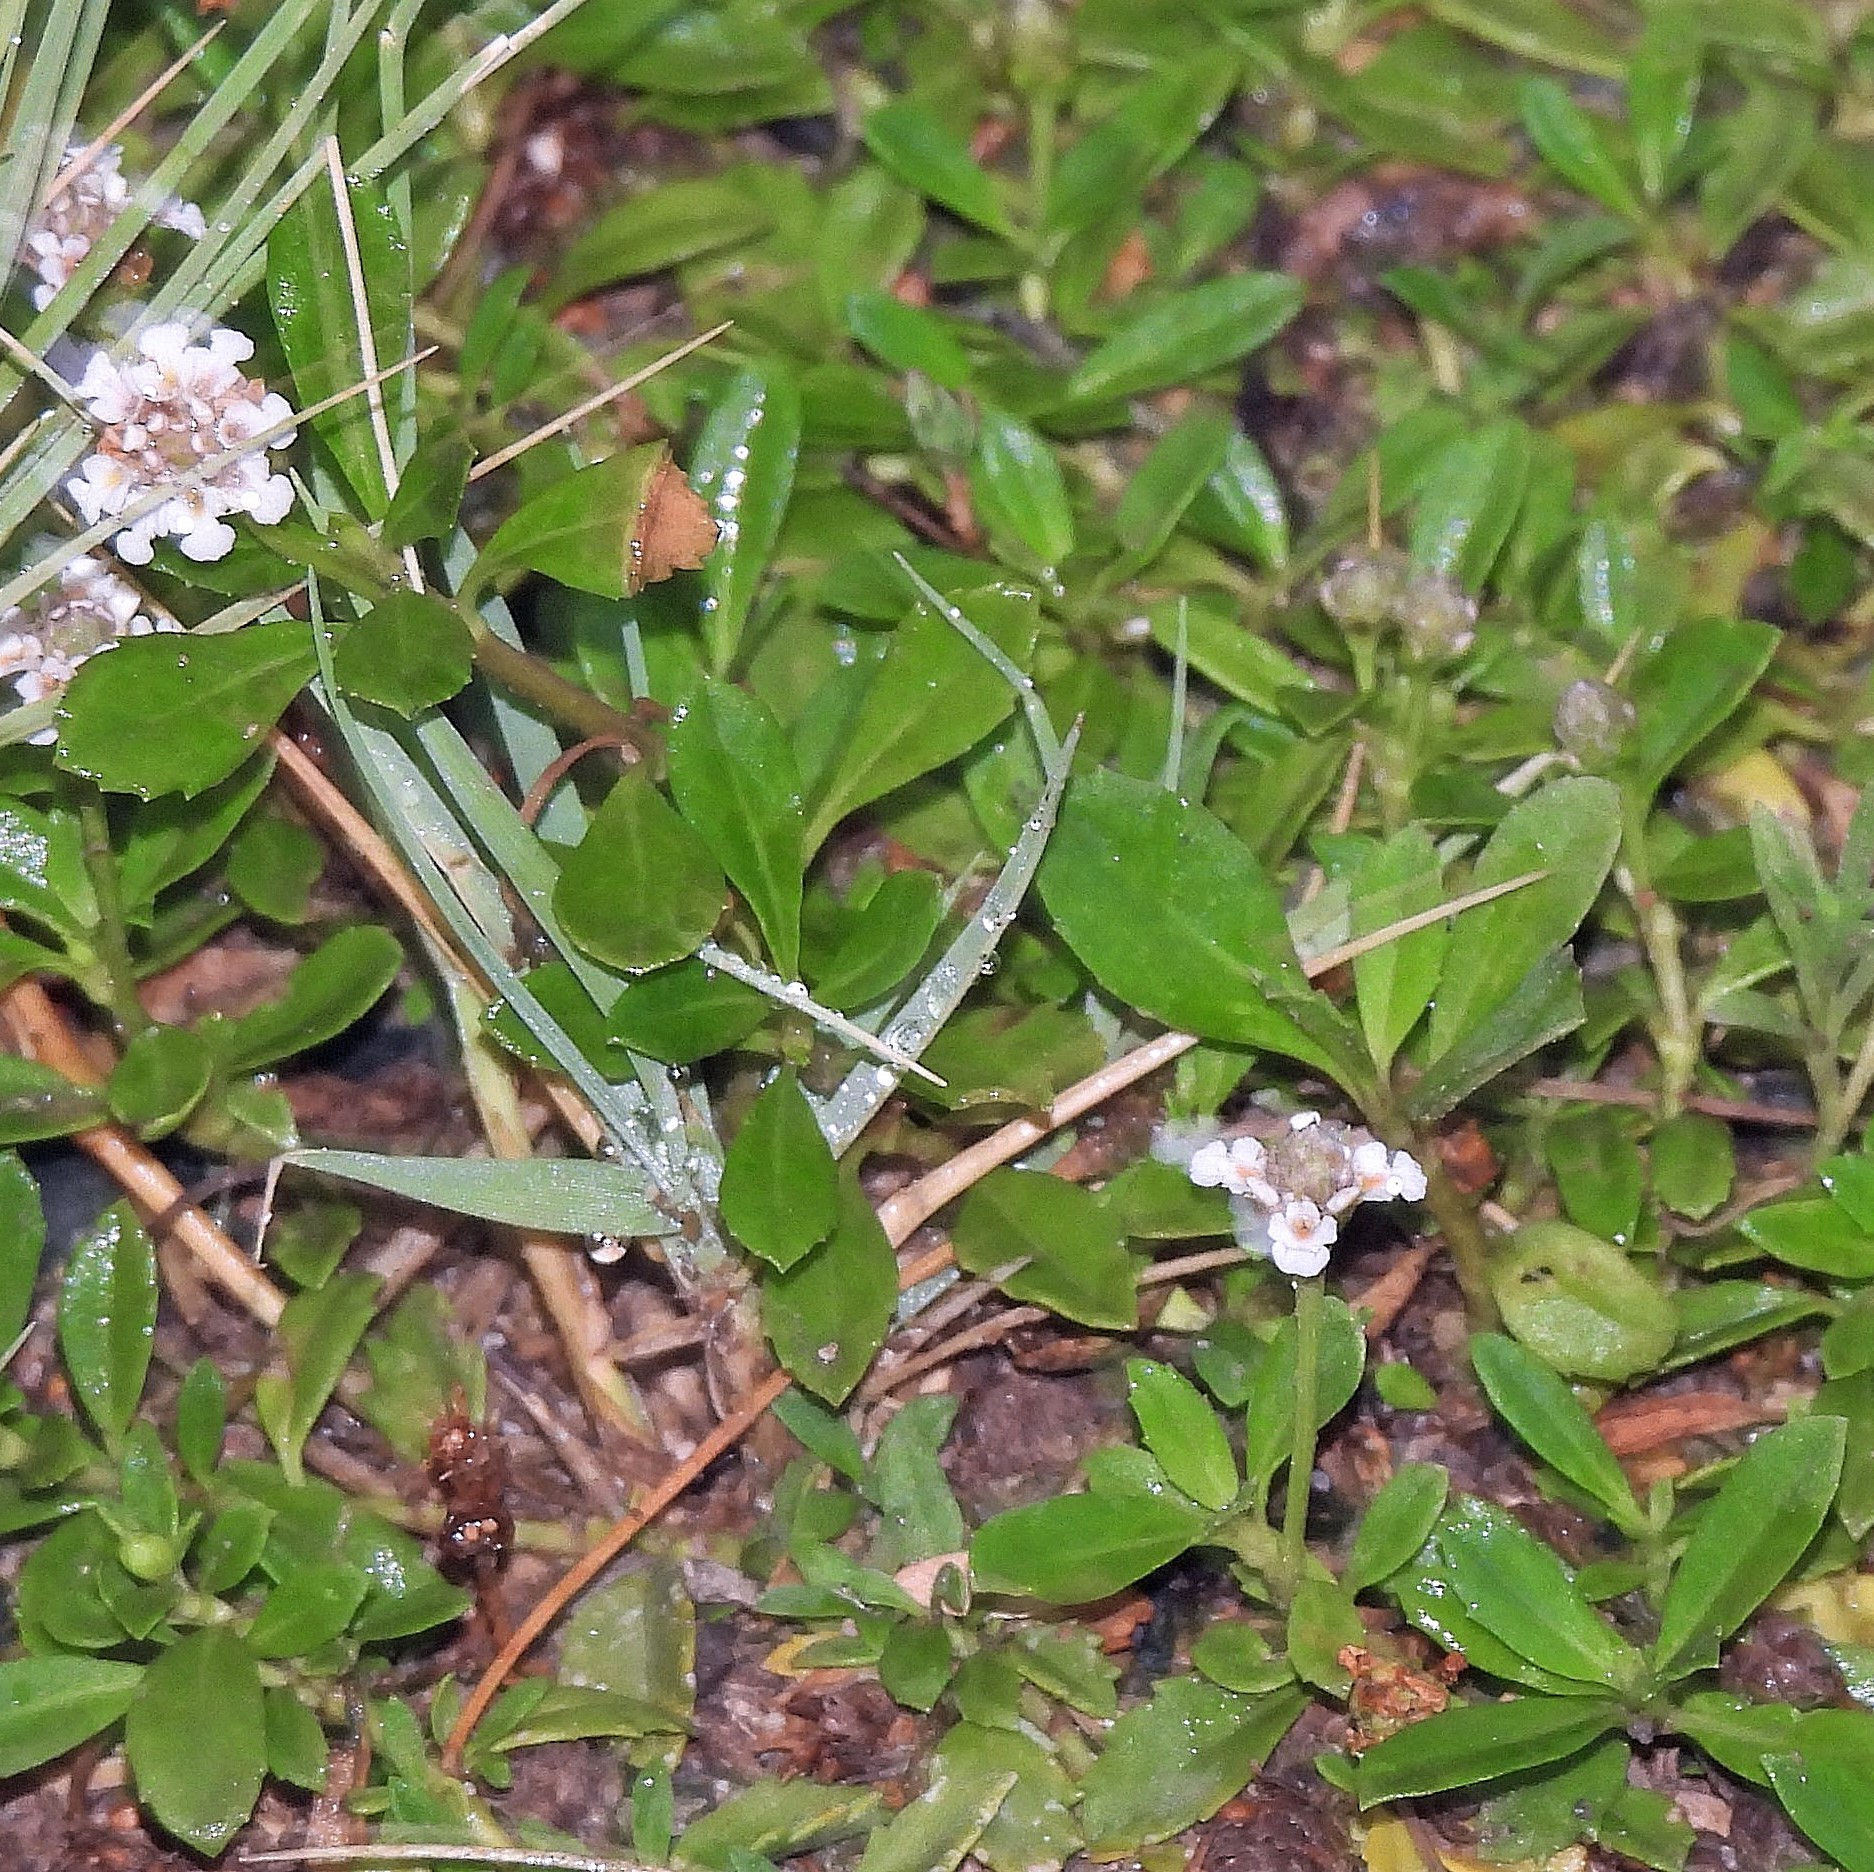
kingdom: Plantae
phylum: Tracheophyta
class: Magnoliopsida
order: Lamiales
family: Verbenaceae
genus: Phyla
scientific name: Phyla nodiflora
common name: Frogfruit
